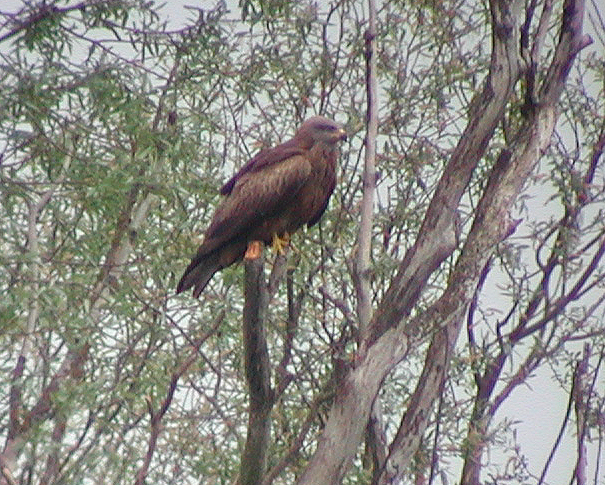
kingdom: Animalia
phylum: Chordata
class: Aves
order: Accipitriformes
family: Accipitridae
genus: Milvus
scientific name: Milvus migrans
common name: Black kite
